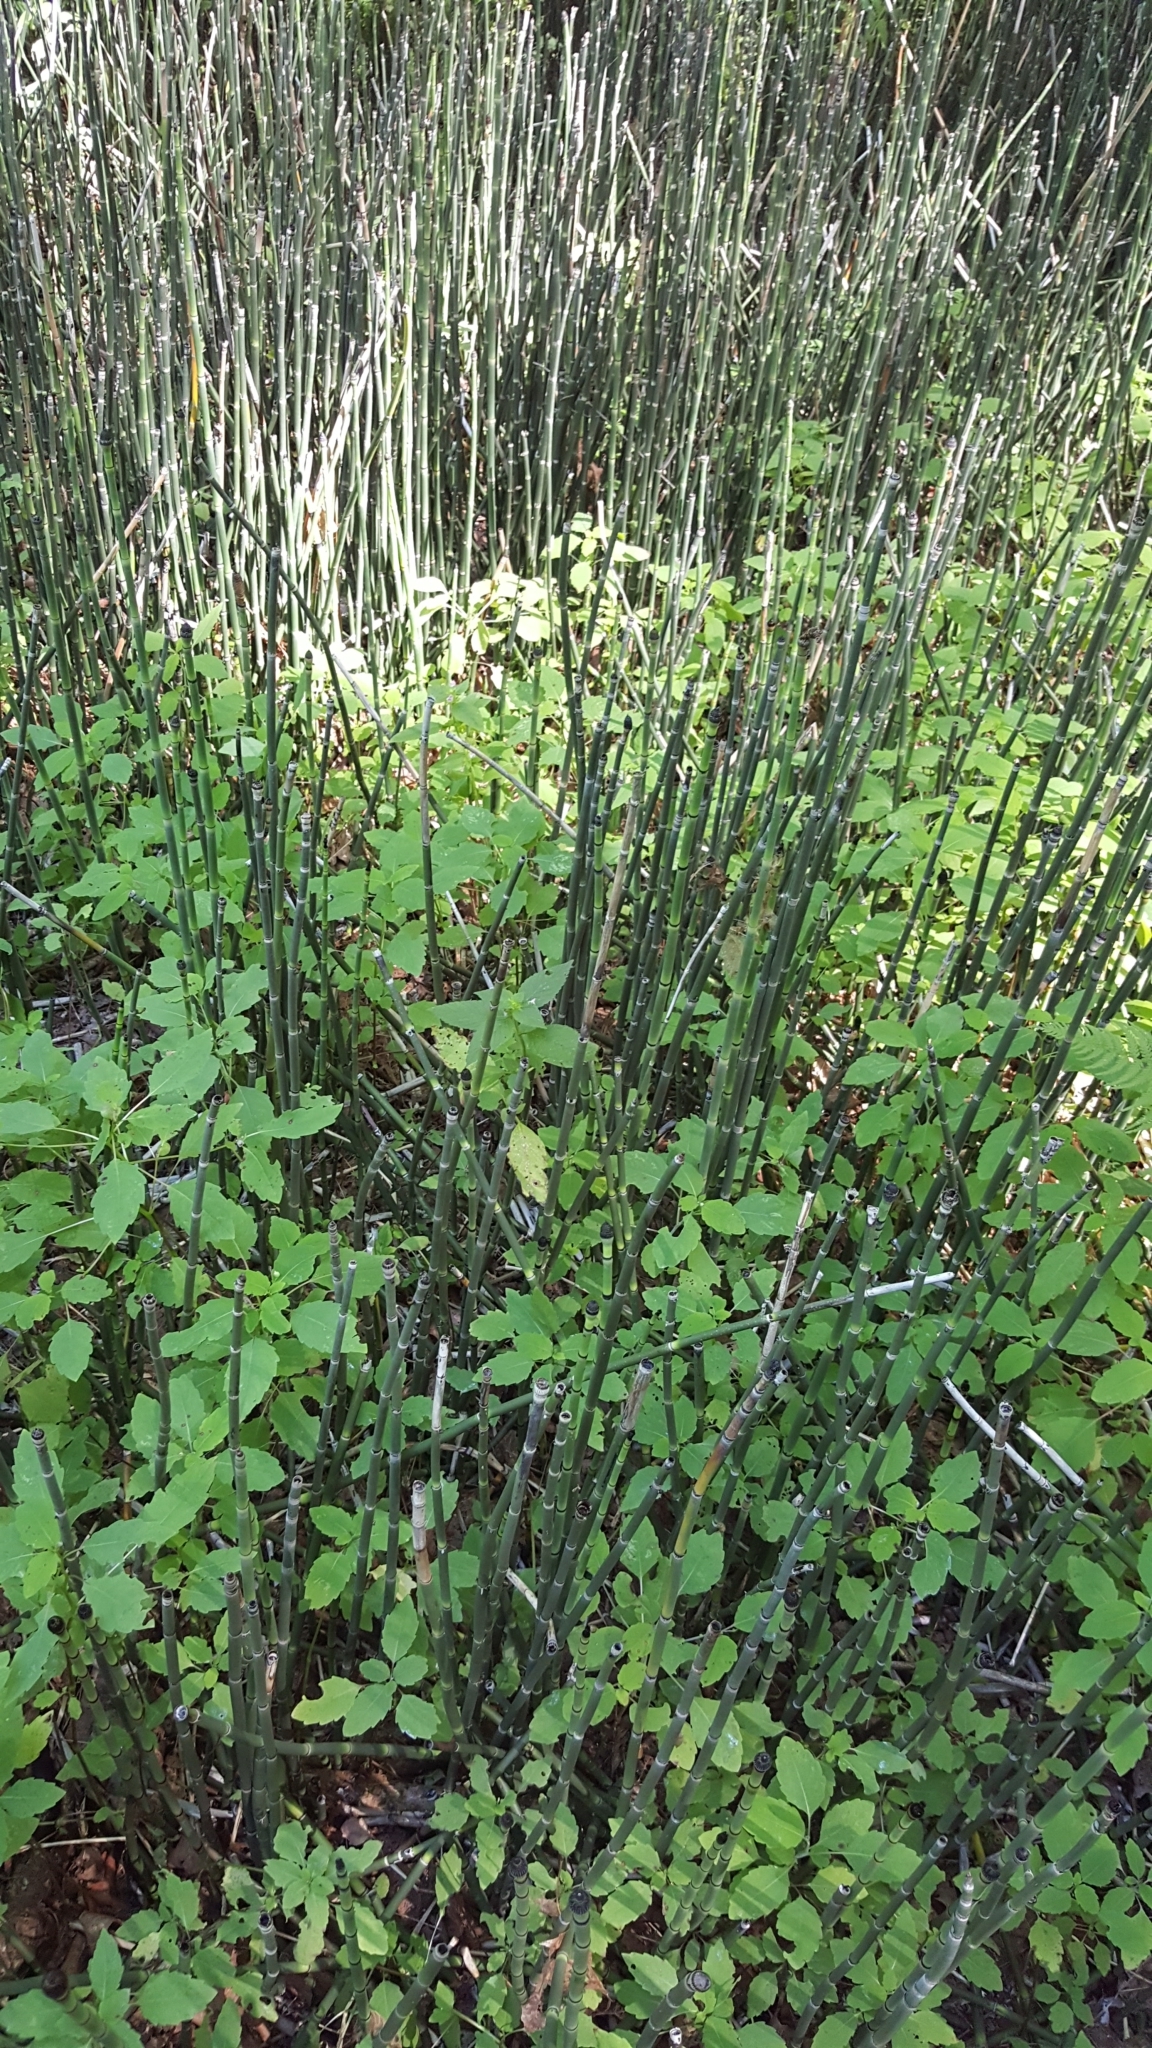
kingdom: Plantae
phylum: Tracheophyta
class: Polypodiopsida
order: Equisetales
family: Equisetaceae
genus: Equisetum
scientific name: Equisetum hyemale
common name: Rough horsetail
